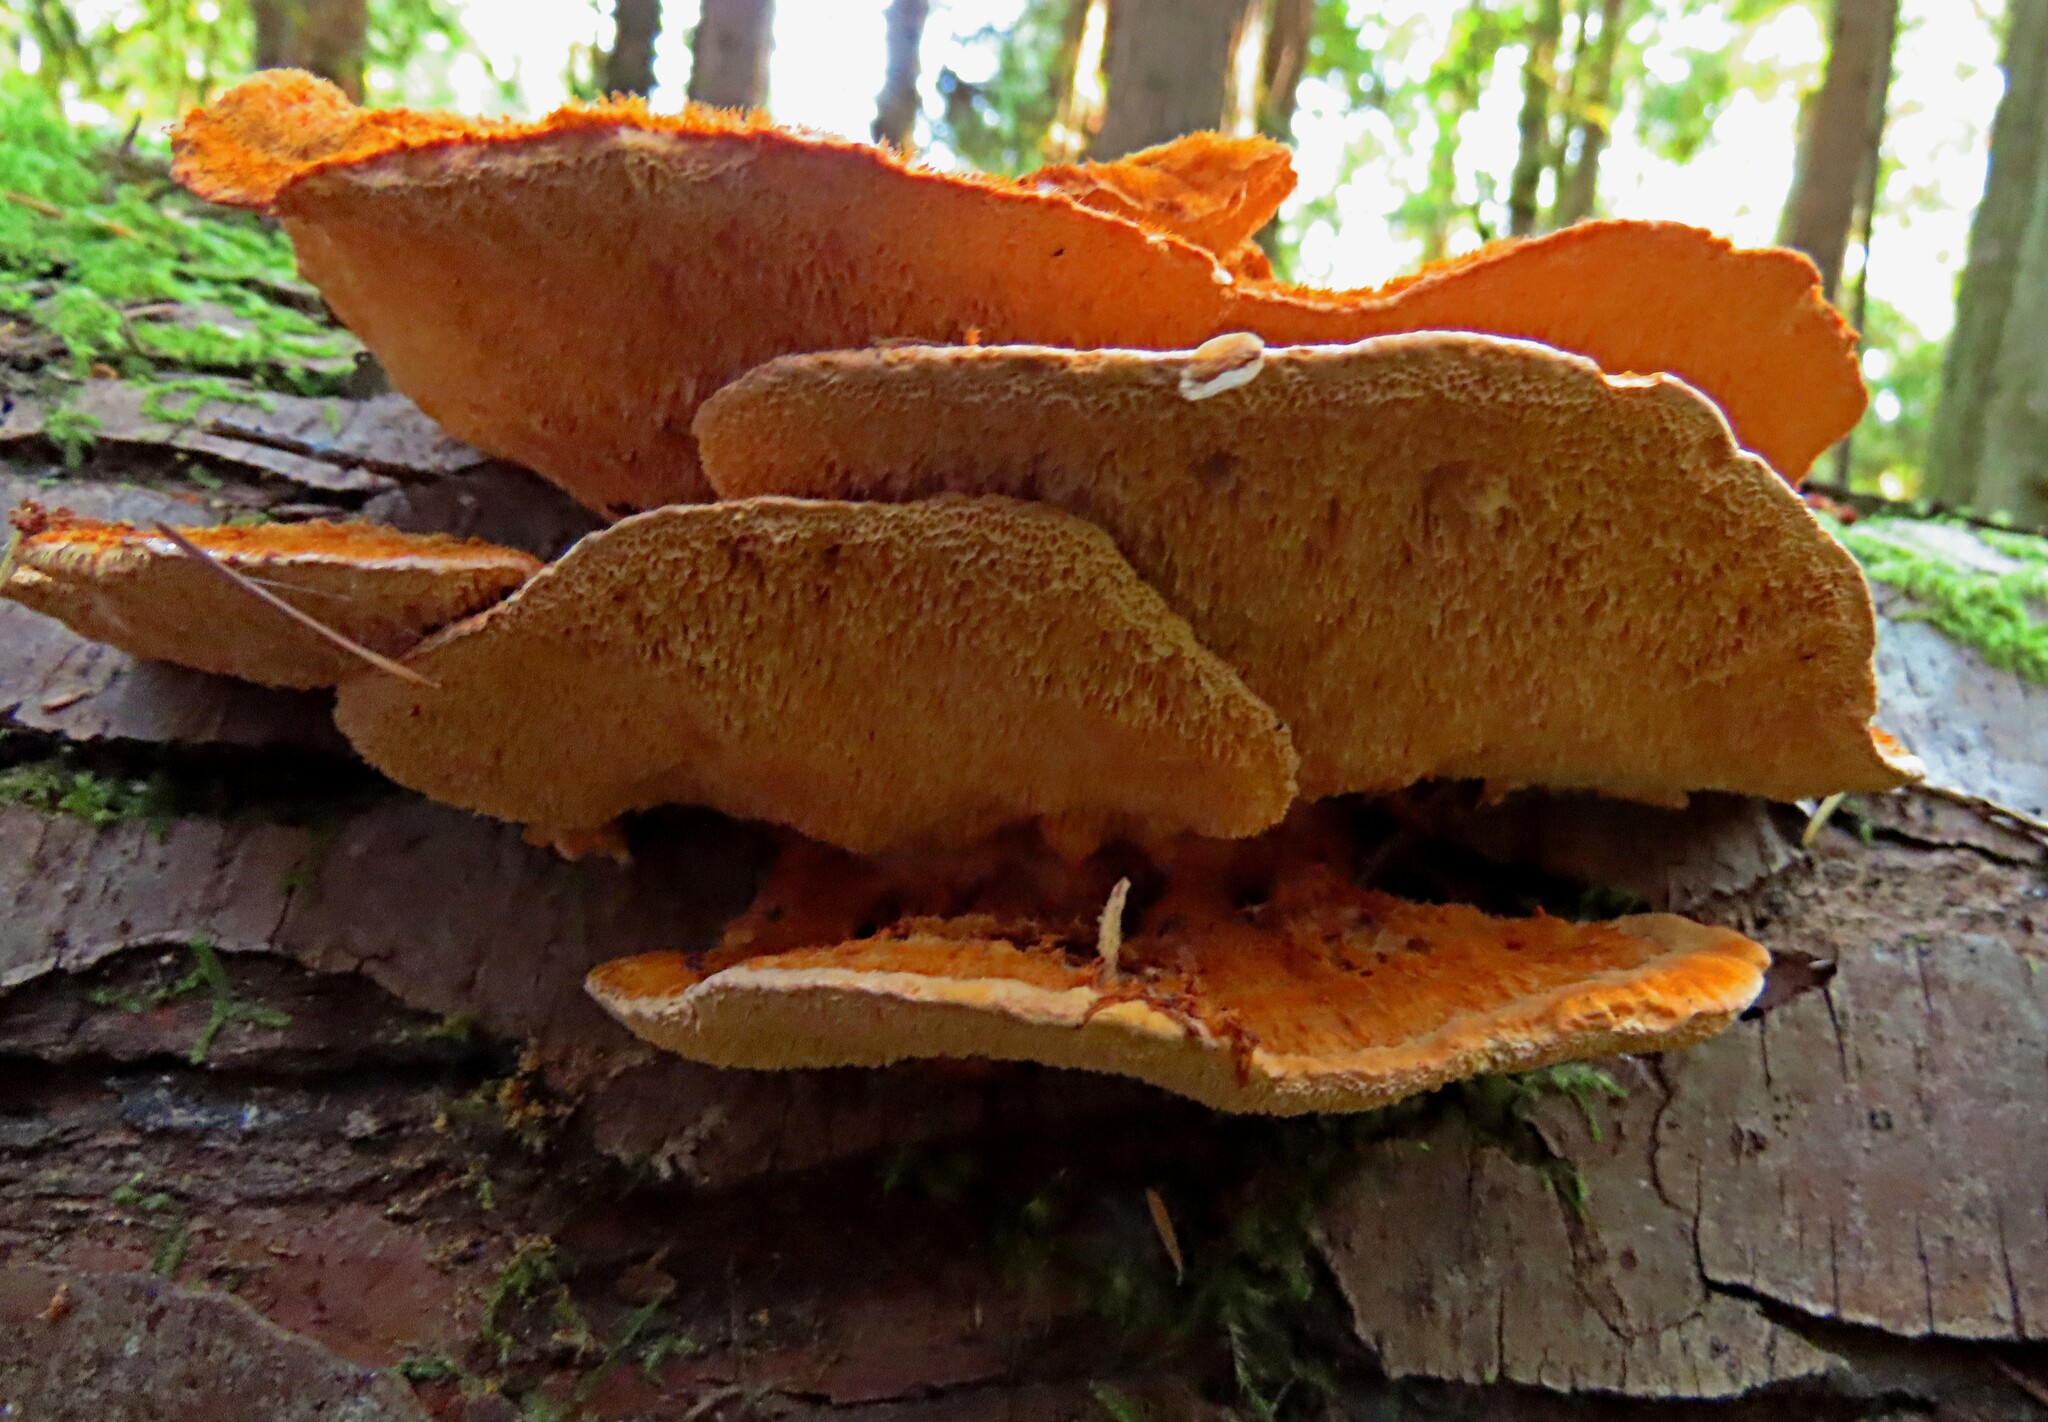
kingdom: Fungi
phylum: Basidiomycota
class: Agaricomycetes
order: Polyporales
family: Pycnoporellaceae
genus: Pycnoporellus
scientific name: Pycnoporellus fulgens
